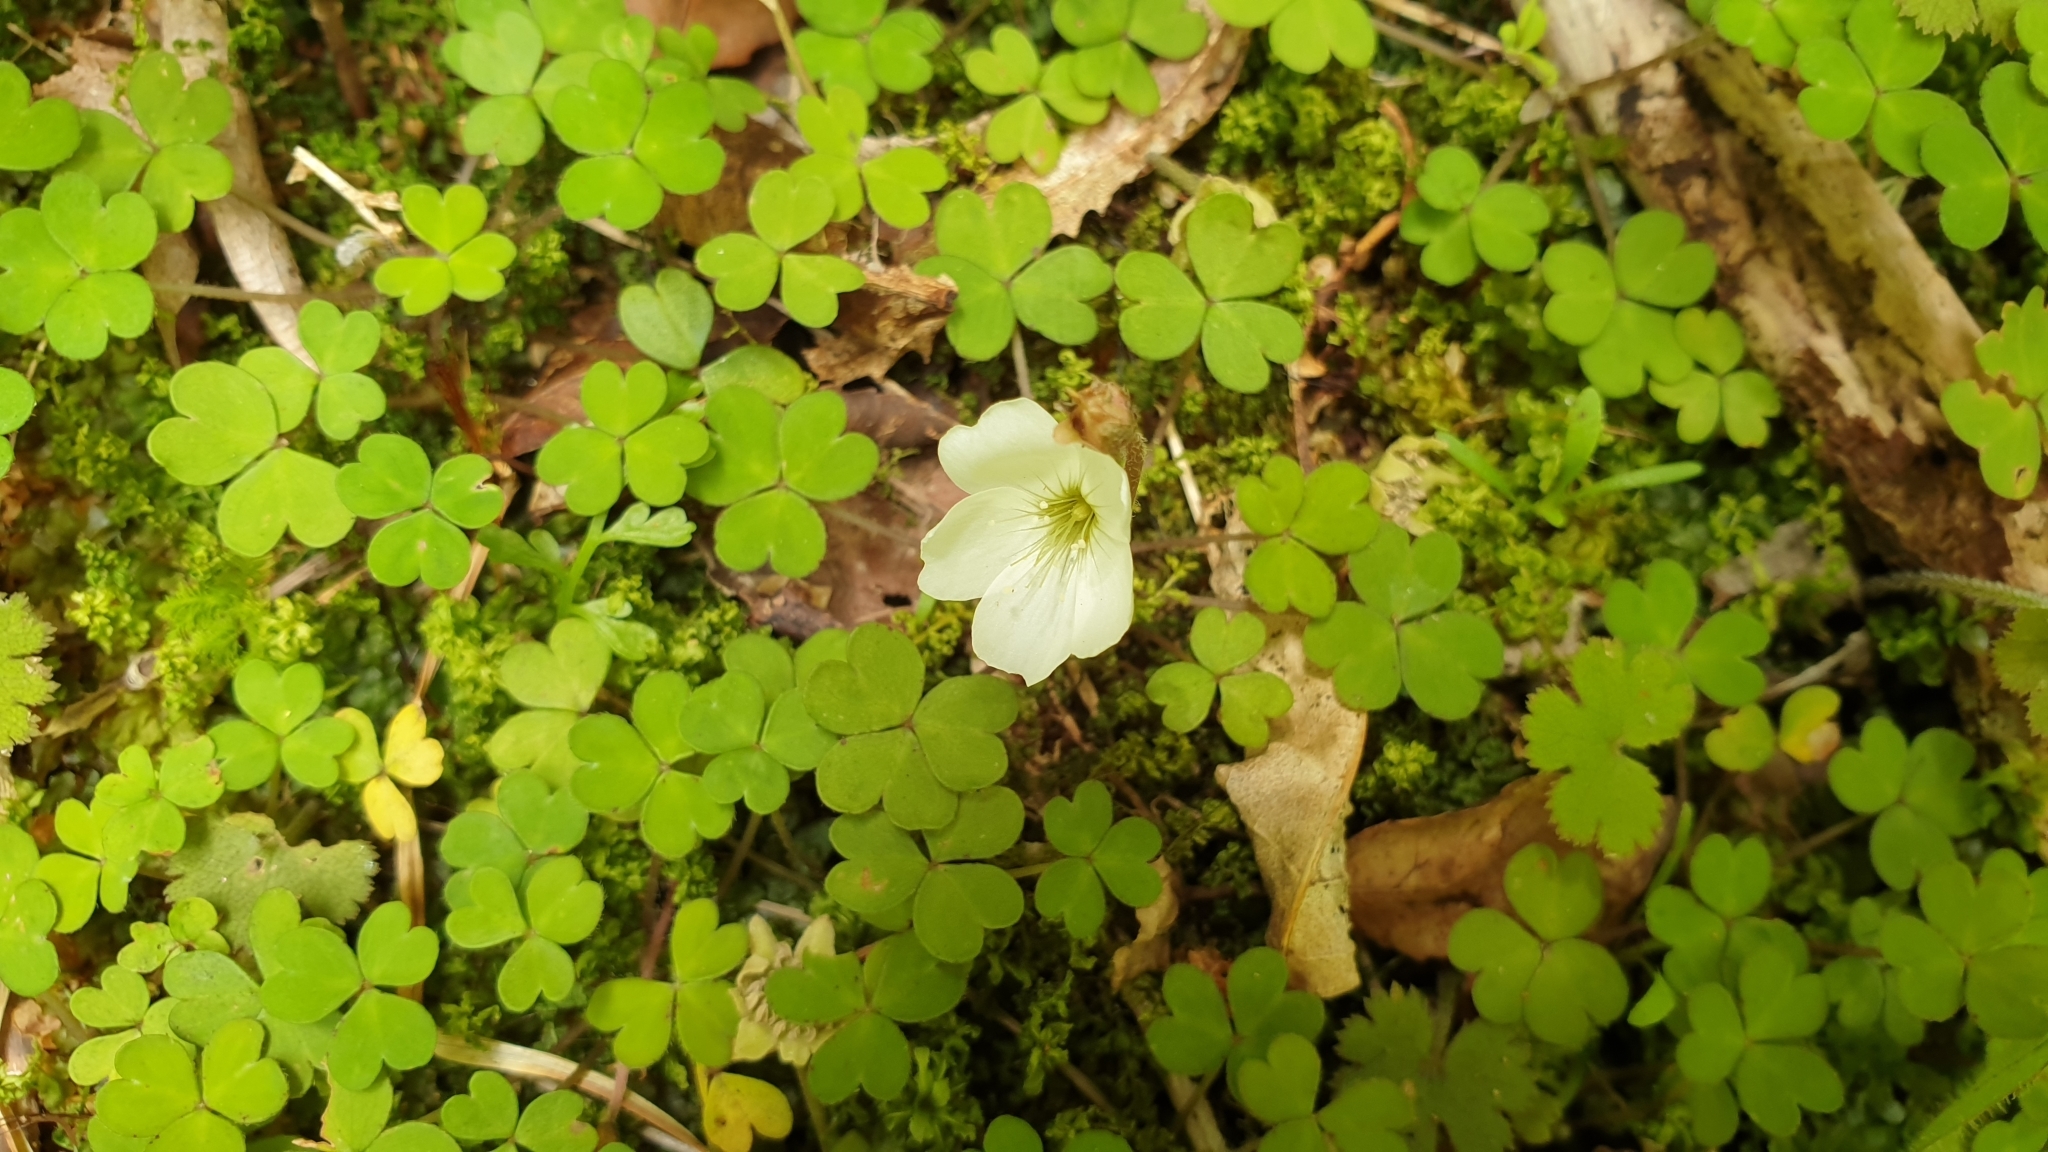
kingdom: Plantae
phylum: Tracheophyta
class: Magnoliopsida
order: Oxalidales
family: Oxalidaceae
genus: Oxalis
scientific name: Oxalis magellanica
